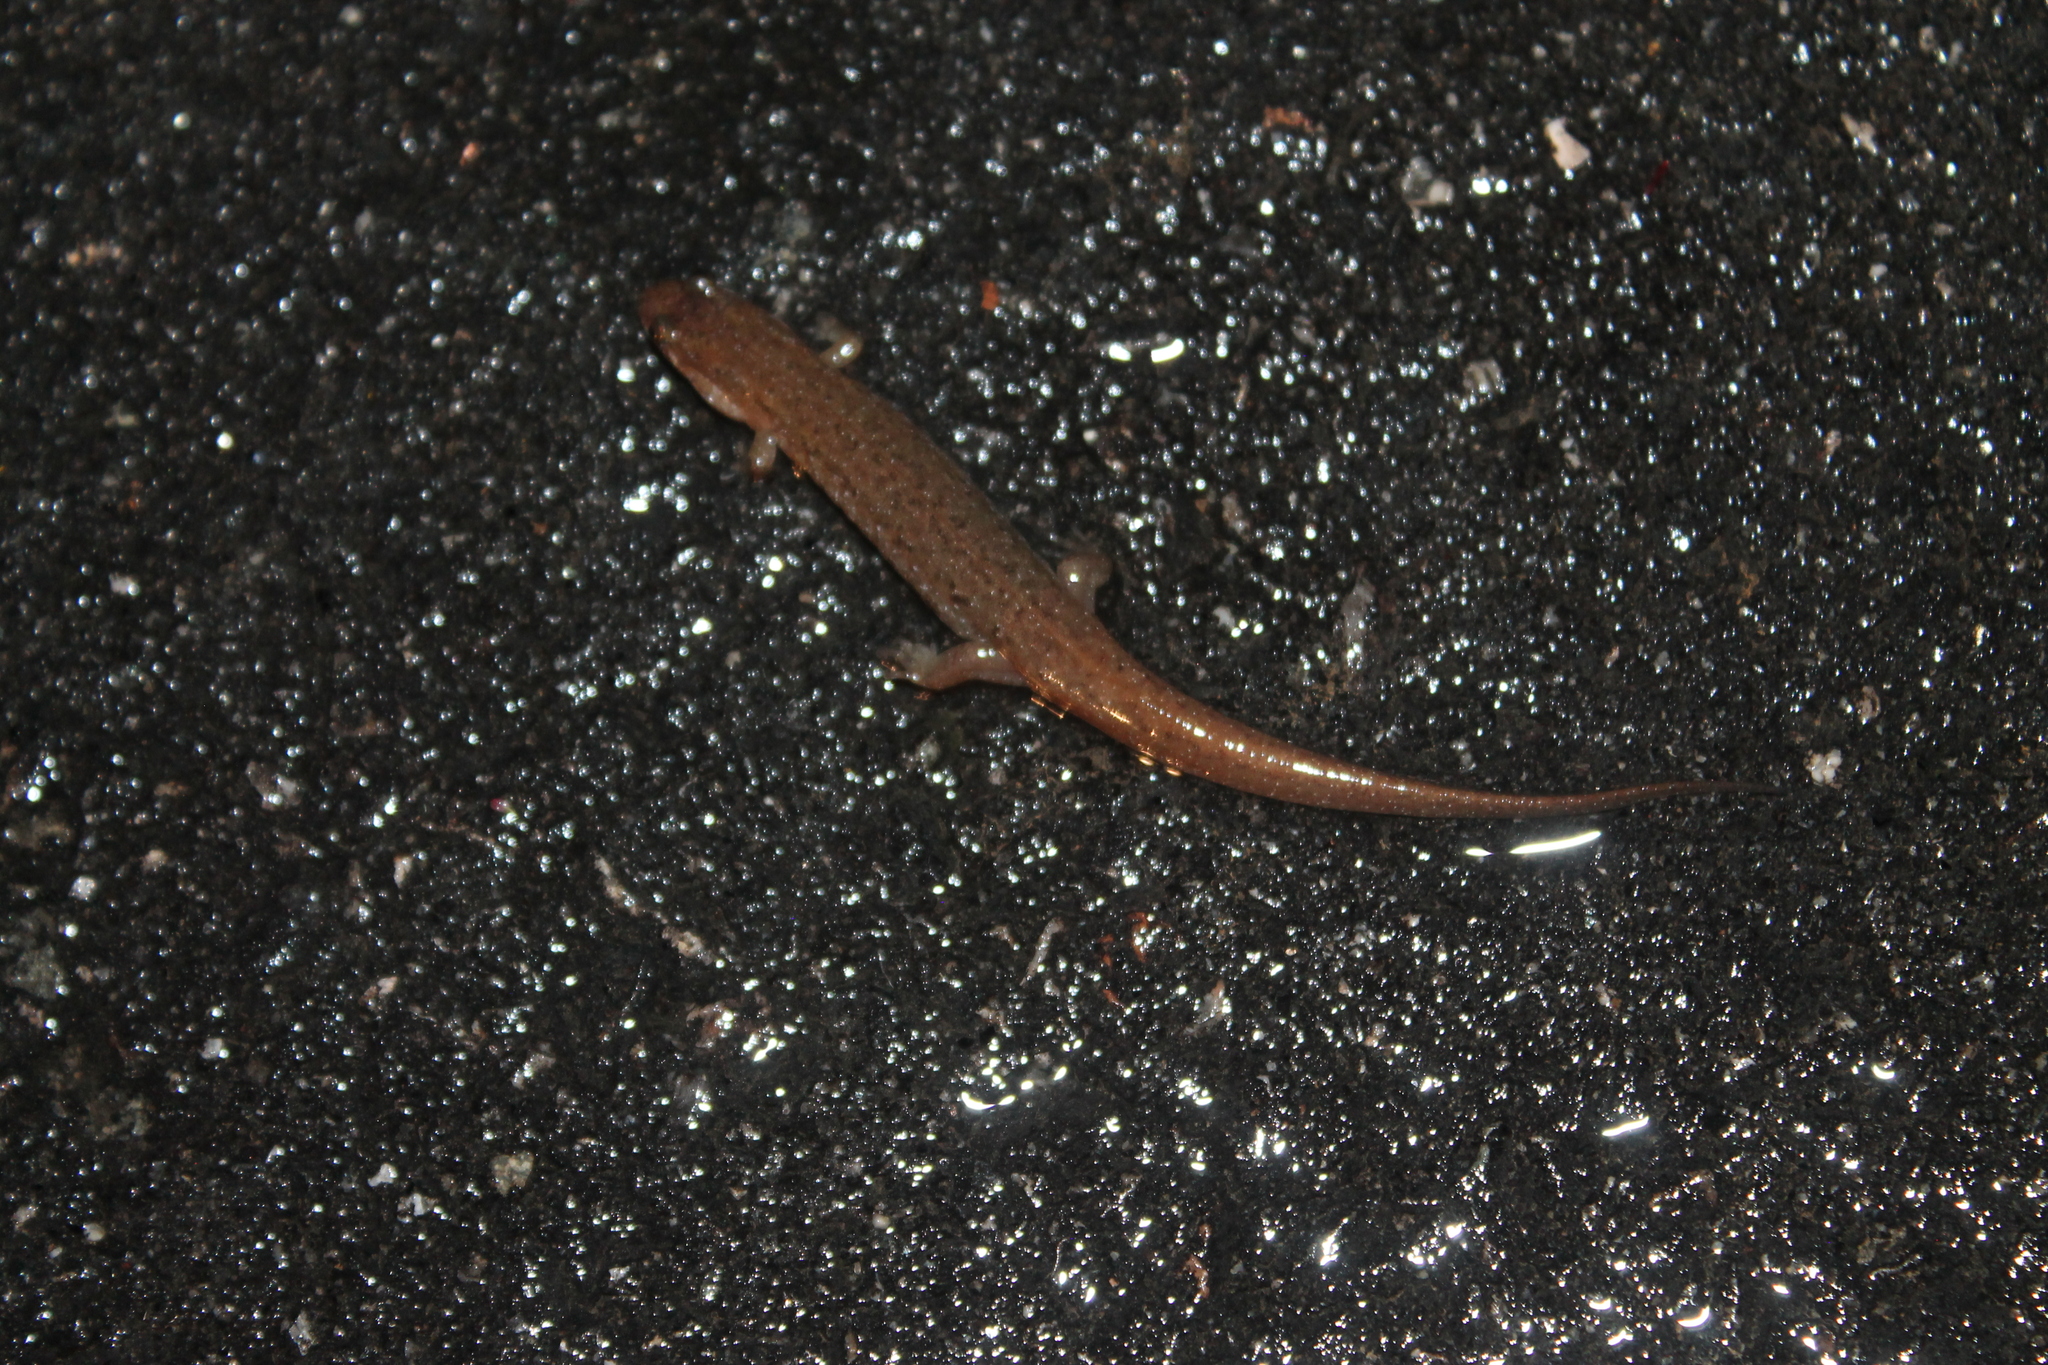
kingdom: Animalia
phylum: Chordata
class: Amphibia
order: Caudata
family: Plethodontidae
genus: Desmognathus
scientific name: Desmognathus
